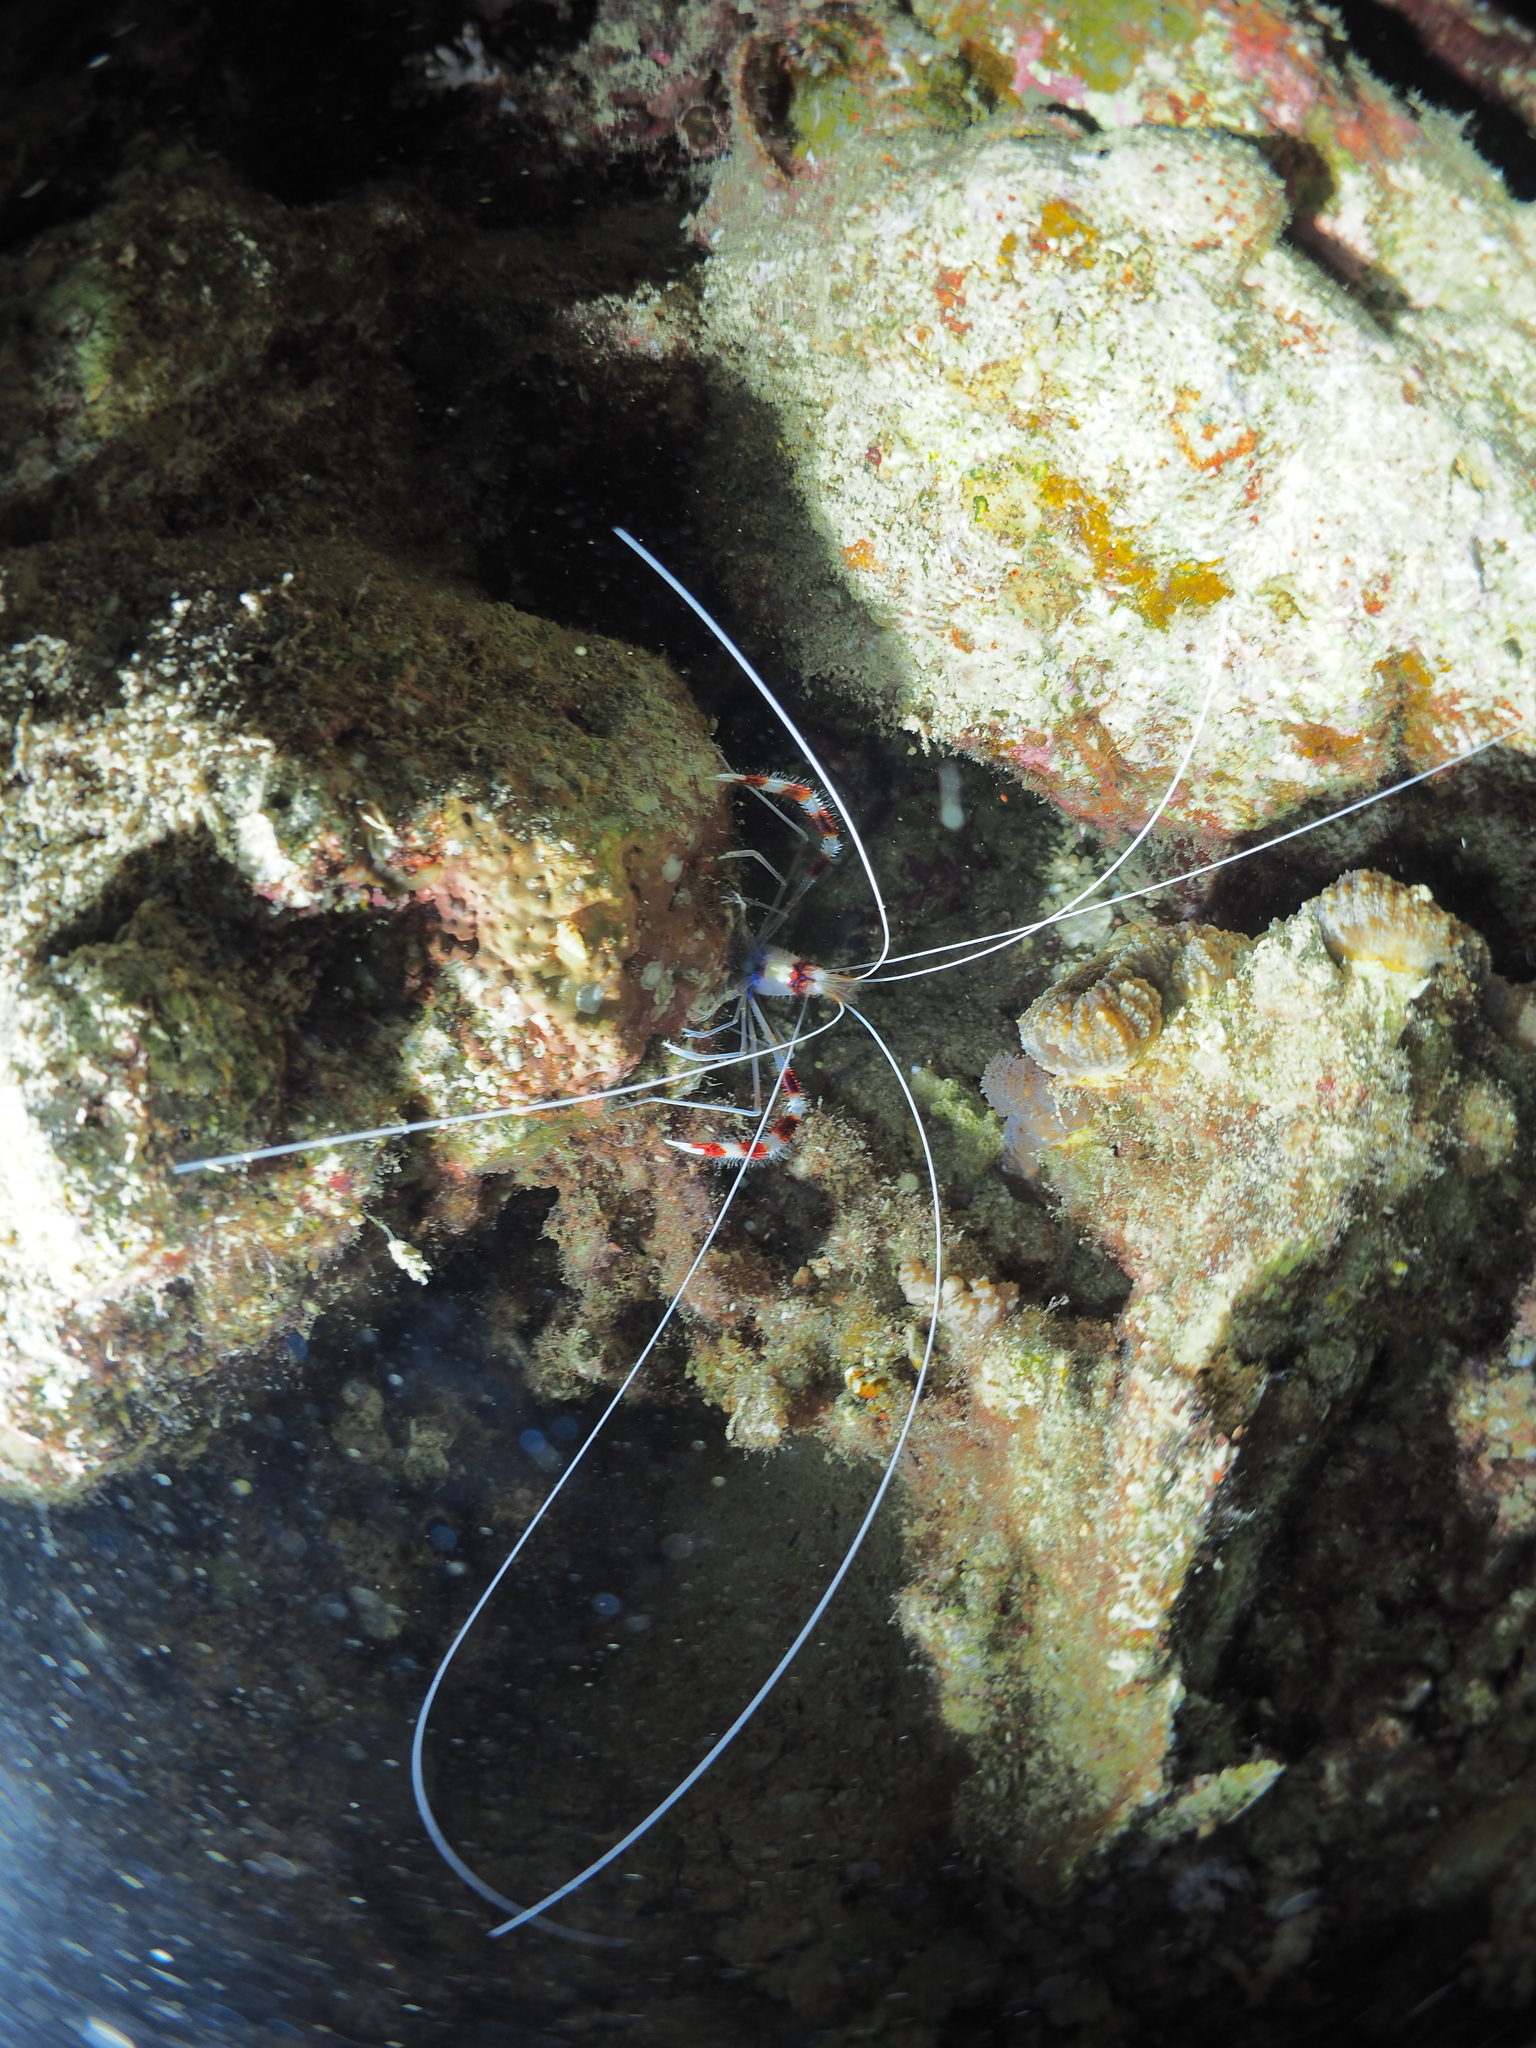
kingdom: Animalia
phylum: Arthropoda
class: Malacostraca
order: Decapoda
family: Stenopodidae
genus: Stenopus
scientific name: Stenopus hispidus
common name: Banded coral shrimp
